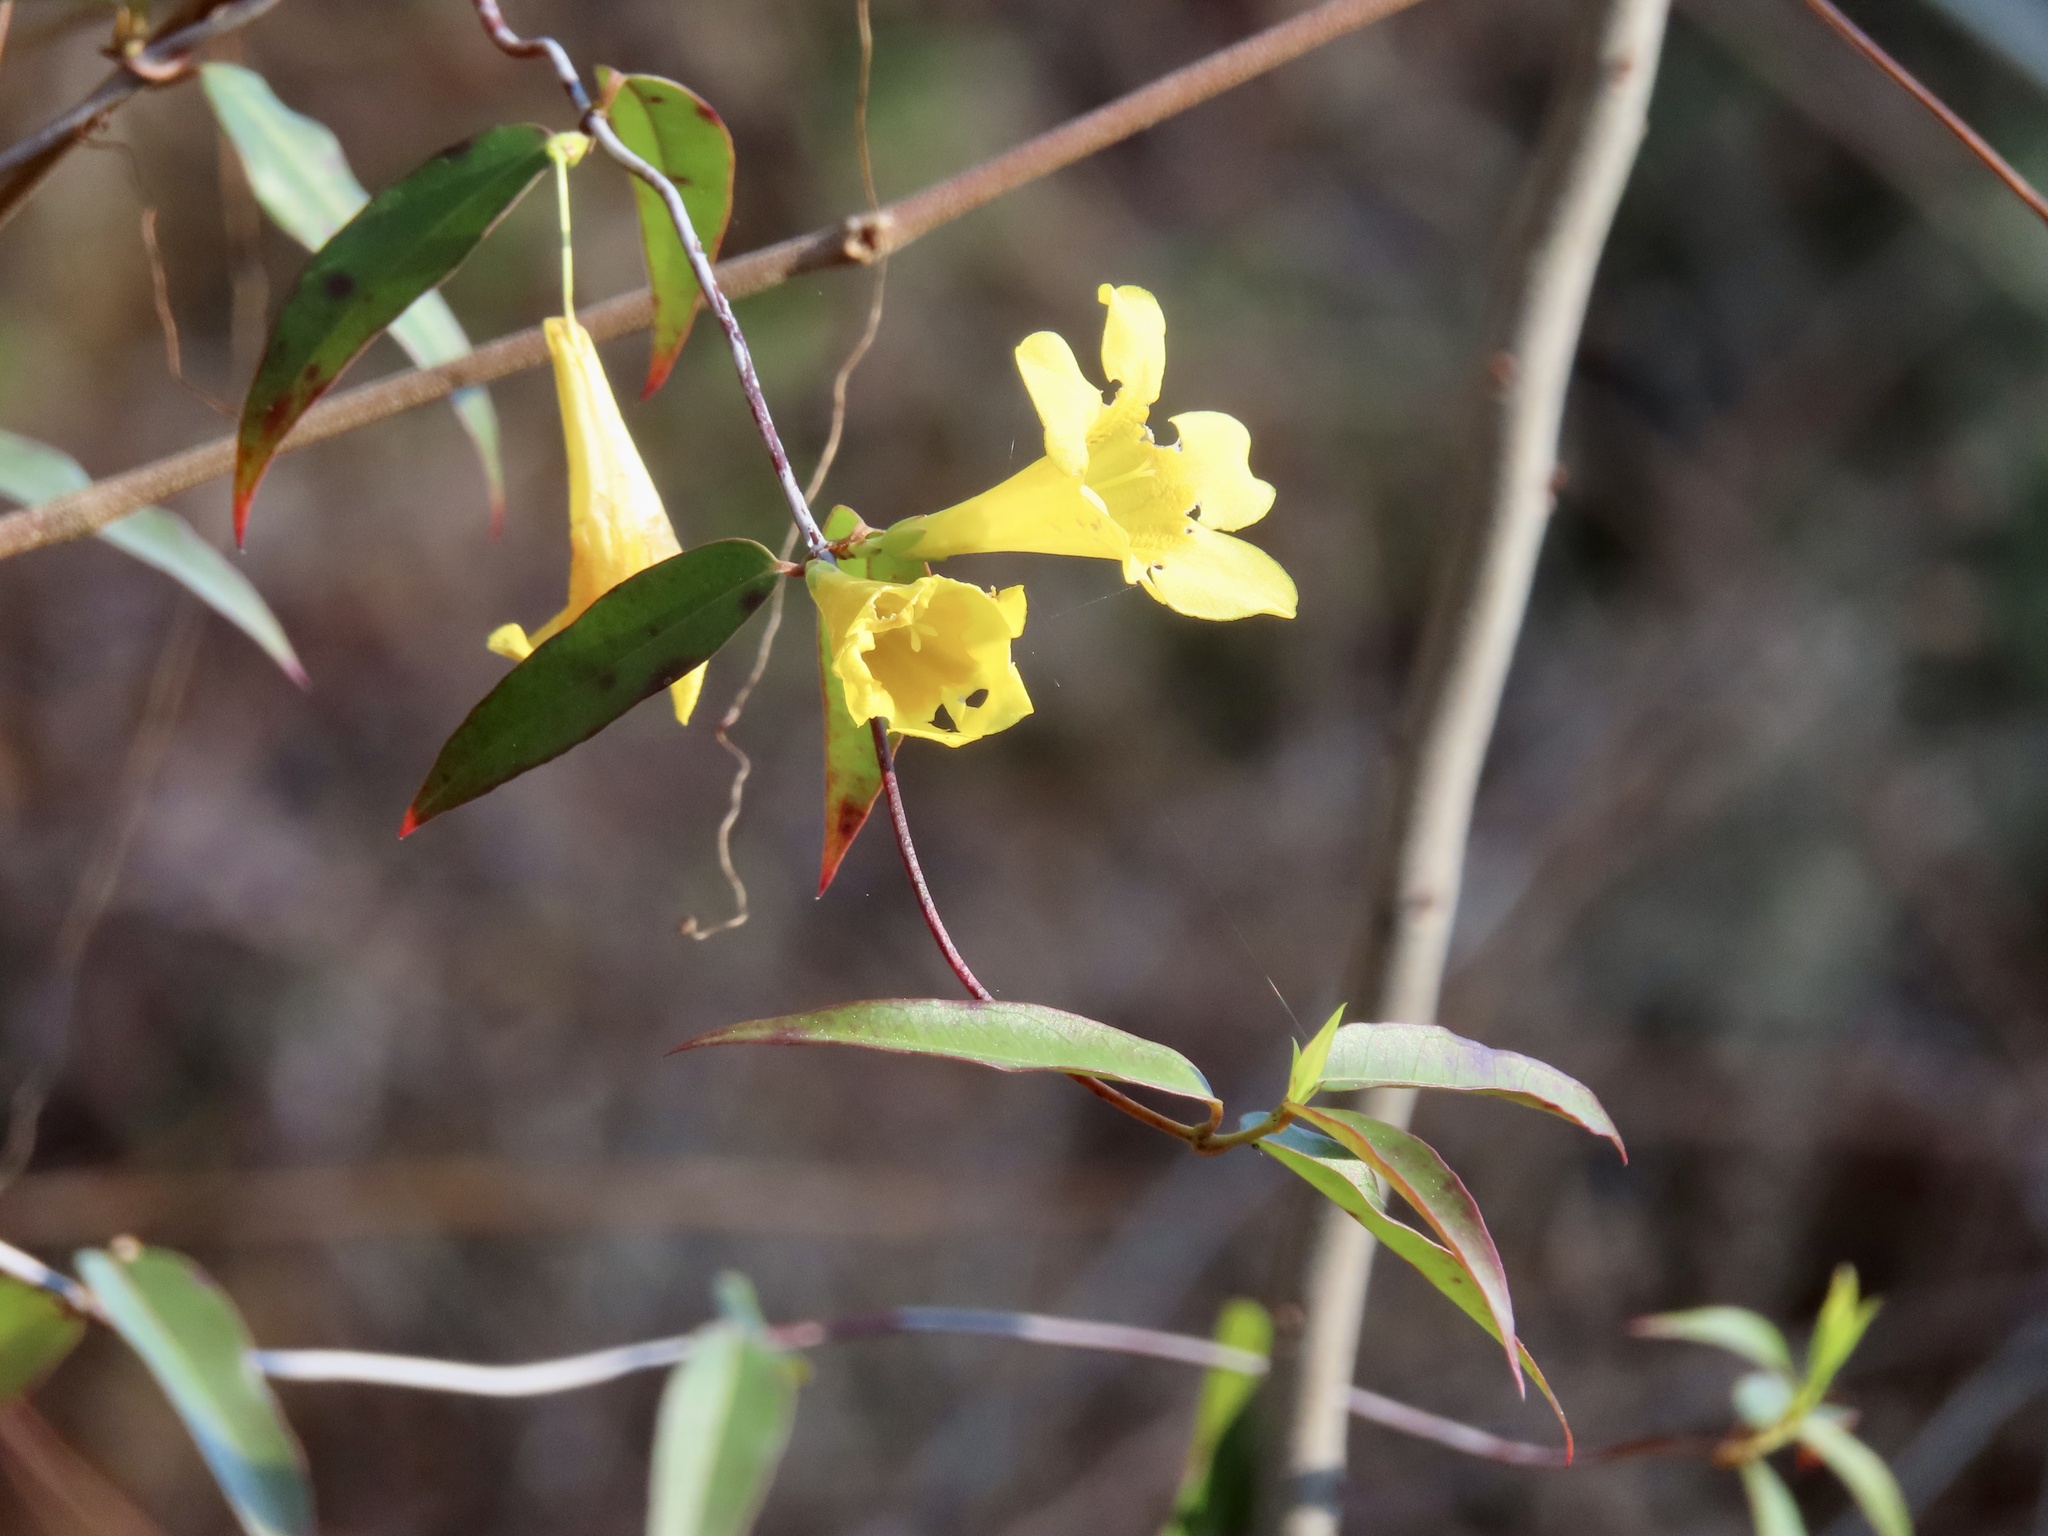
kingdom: Plantae
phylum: Tracheophyta
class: Magnoliopsida
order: Gentianales
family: Gelsemiaceae
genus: Gelsemium
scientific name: Gelsemium sempervirens
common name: Carolina-jasmine
